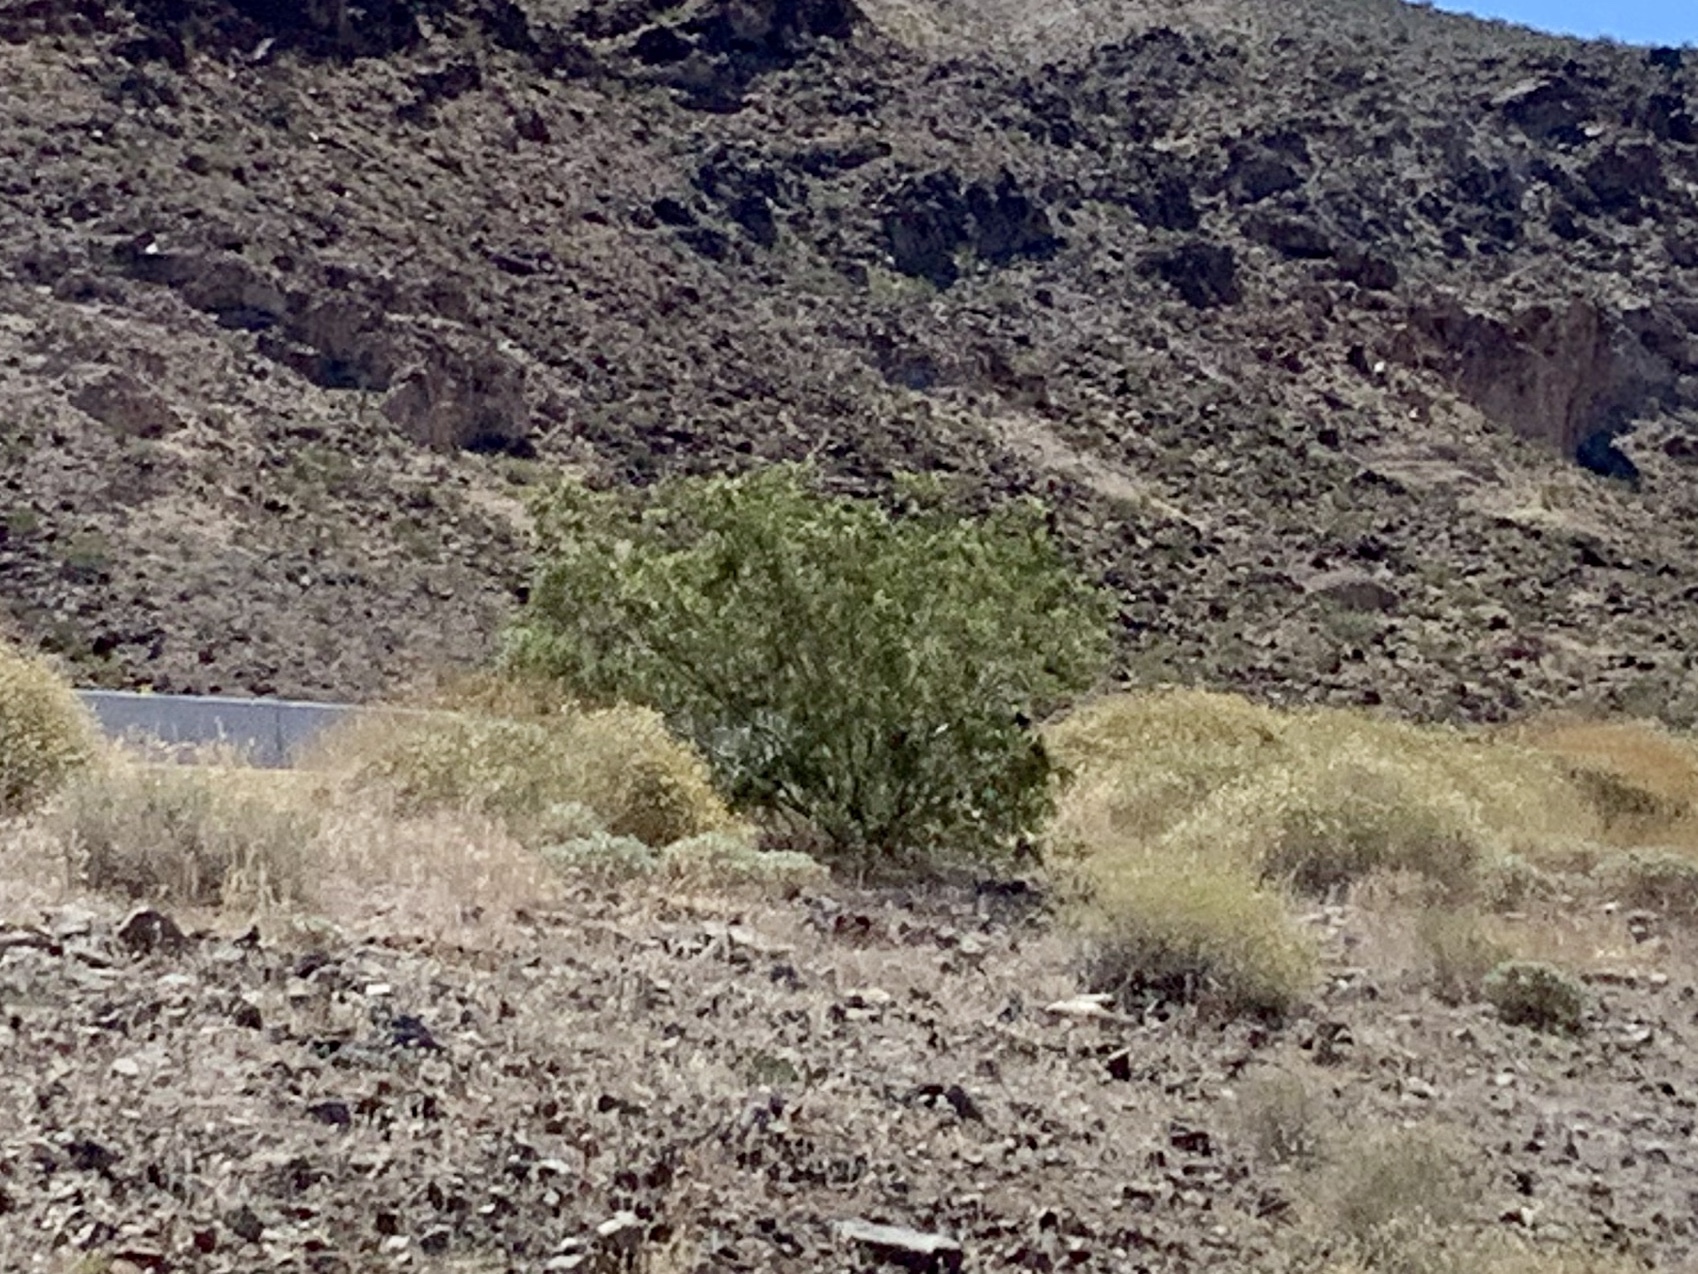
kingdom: Plantae
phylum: Tracheophyta
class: Magnoliopsida
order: Zygophyllales
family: Zygophyllaceae
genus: Larrea
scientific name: Larrea tridentata
